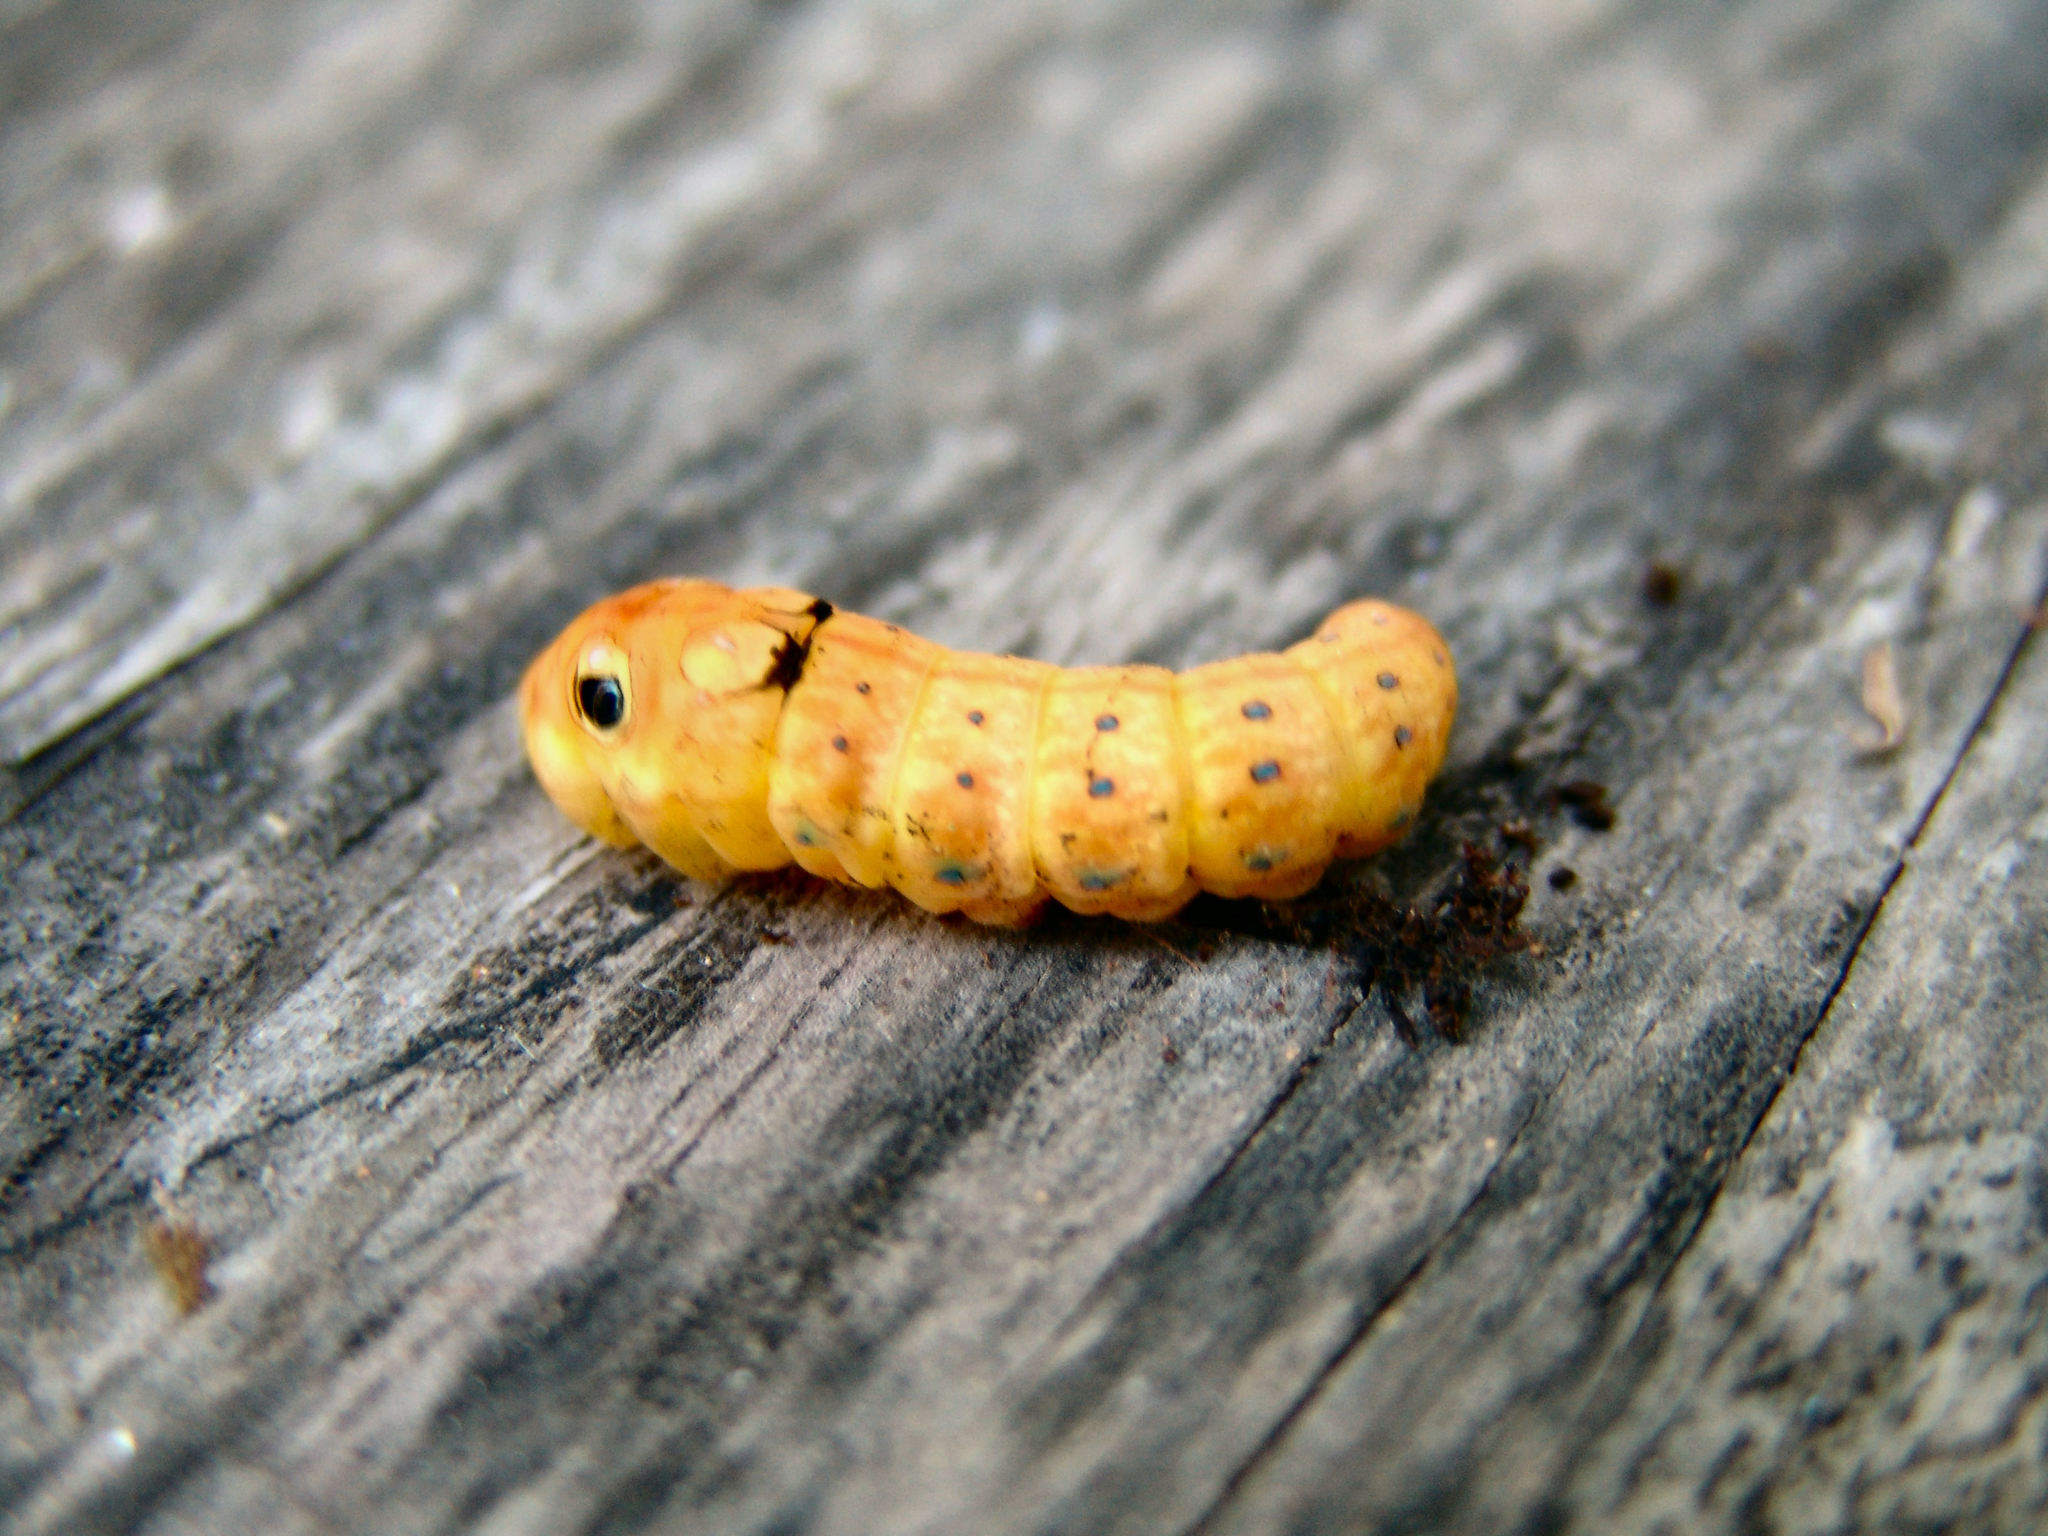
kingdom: Animalia
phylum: Arthropoda
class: Insecta
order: Lepidoptera
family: Papilionidae
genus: Papilio
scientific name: Papilio troilus
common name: Spicebush swallowtail
